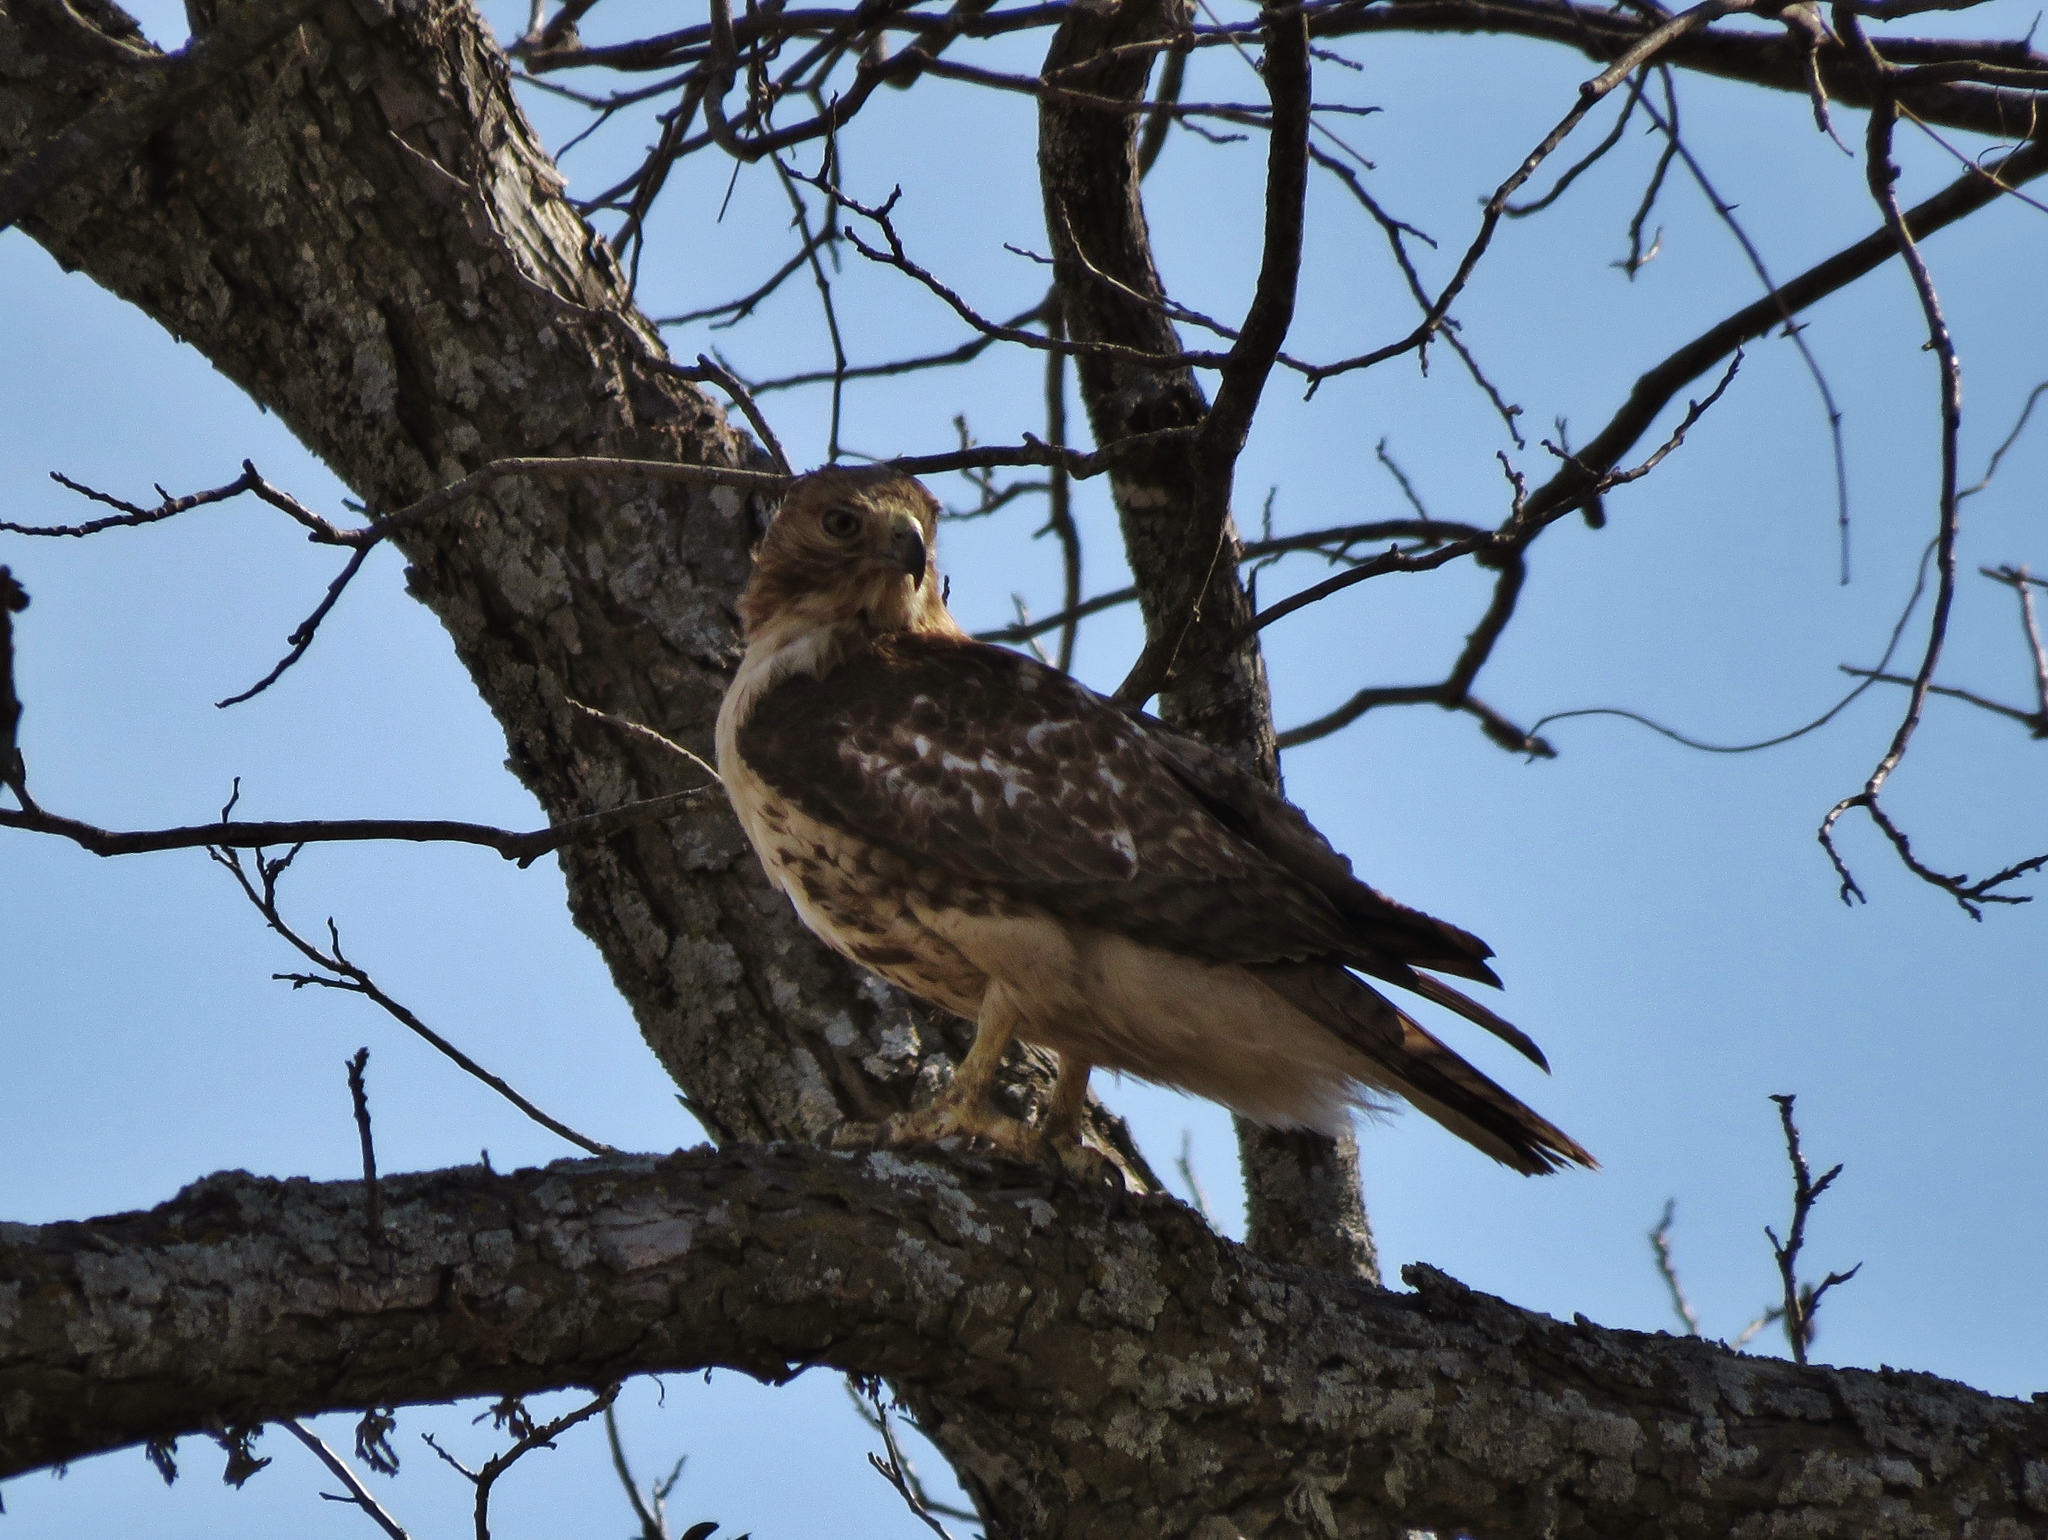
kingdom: Animalia
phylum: Chordata
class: Aves
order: Accipitriformes
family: Accipitridae
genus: Buteo
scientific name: Buteo jamaicensis
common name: Red-tailed hawk
